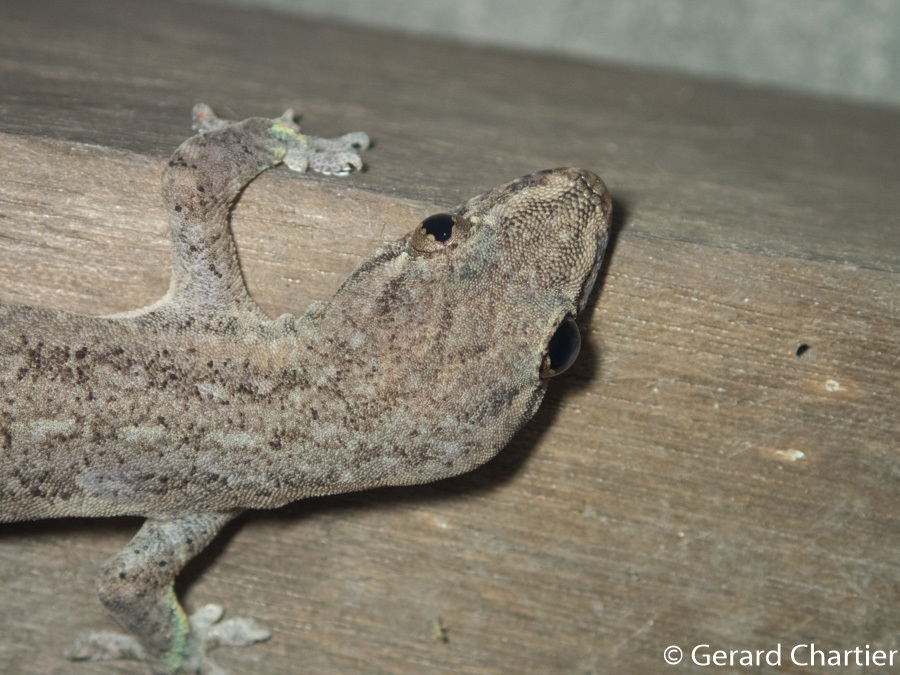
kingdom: Animalia
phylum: Chordata
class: Squamata
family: Gekkonidae
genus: Hemidactylus
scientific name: Hemidactylus frenatus
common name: Common house gecko
